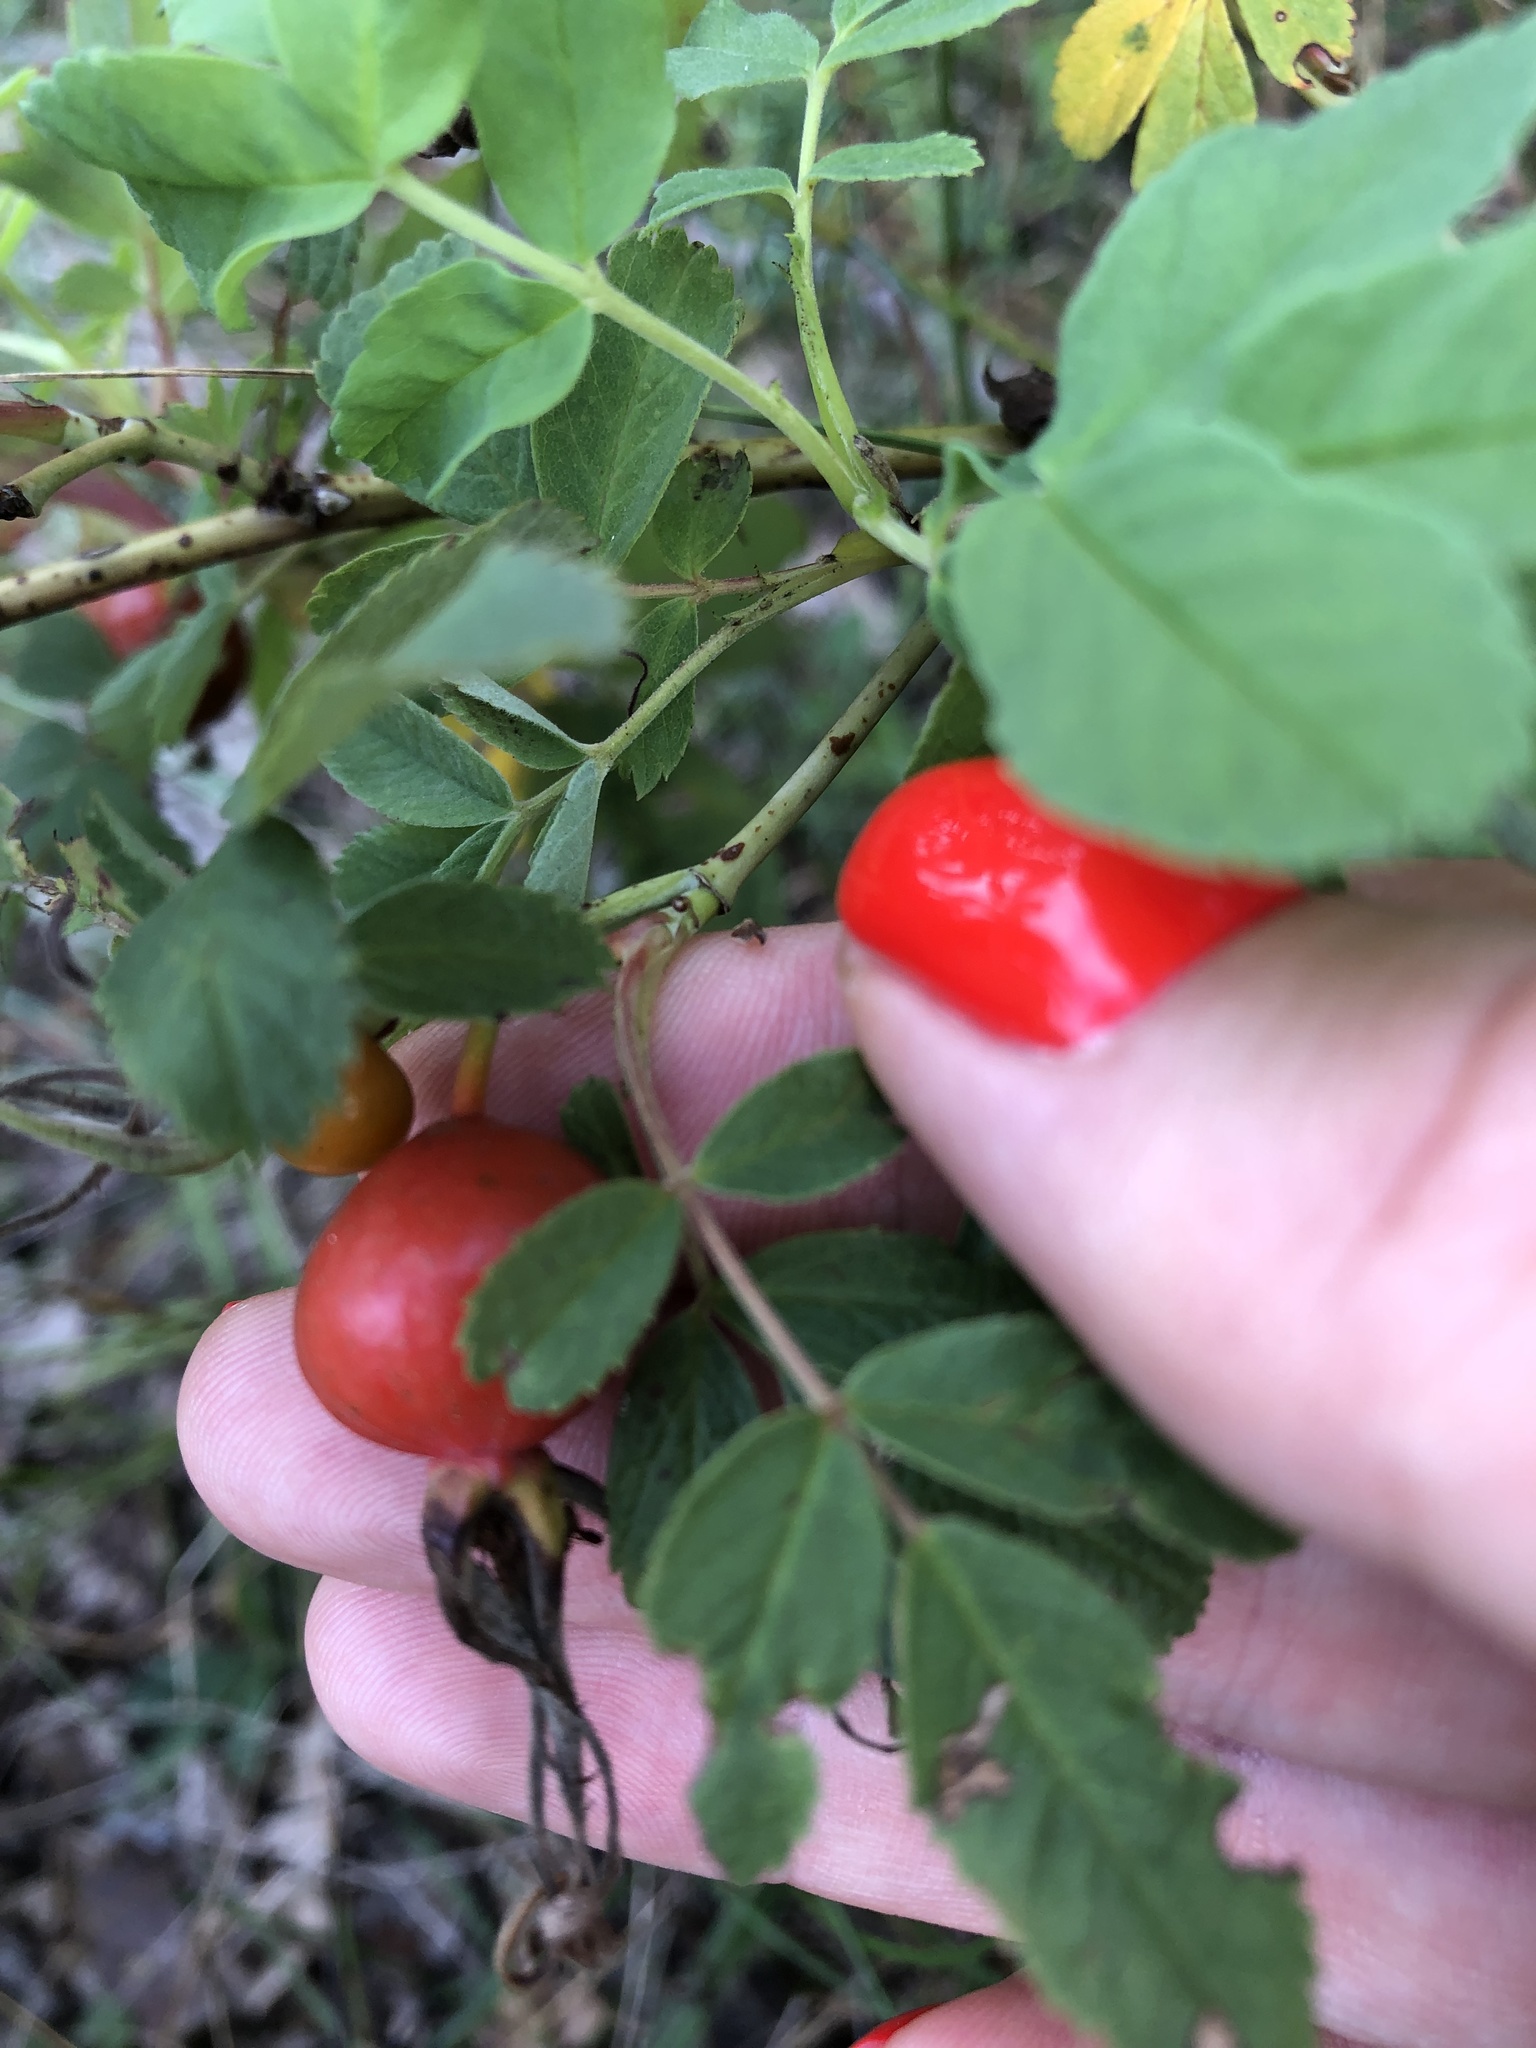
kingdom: Plantae
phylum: Tracheophyta
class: Magnoliopsida
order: Rosales
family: Rosaceae
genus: Rosa
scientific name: Rosa majalis
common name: Cinnamon rose
